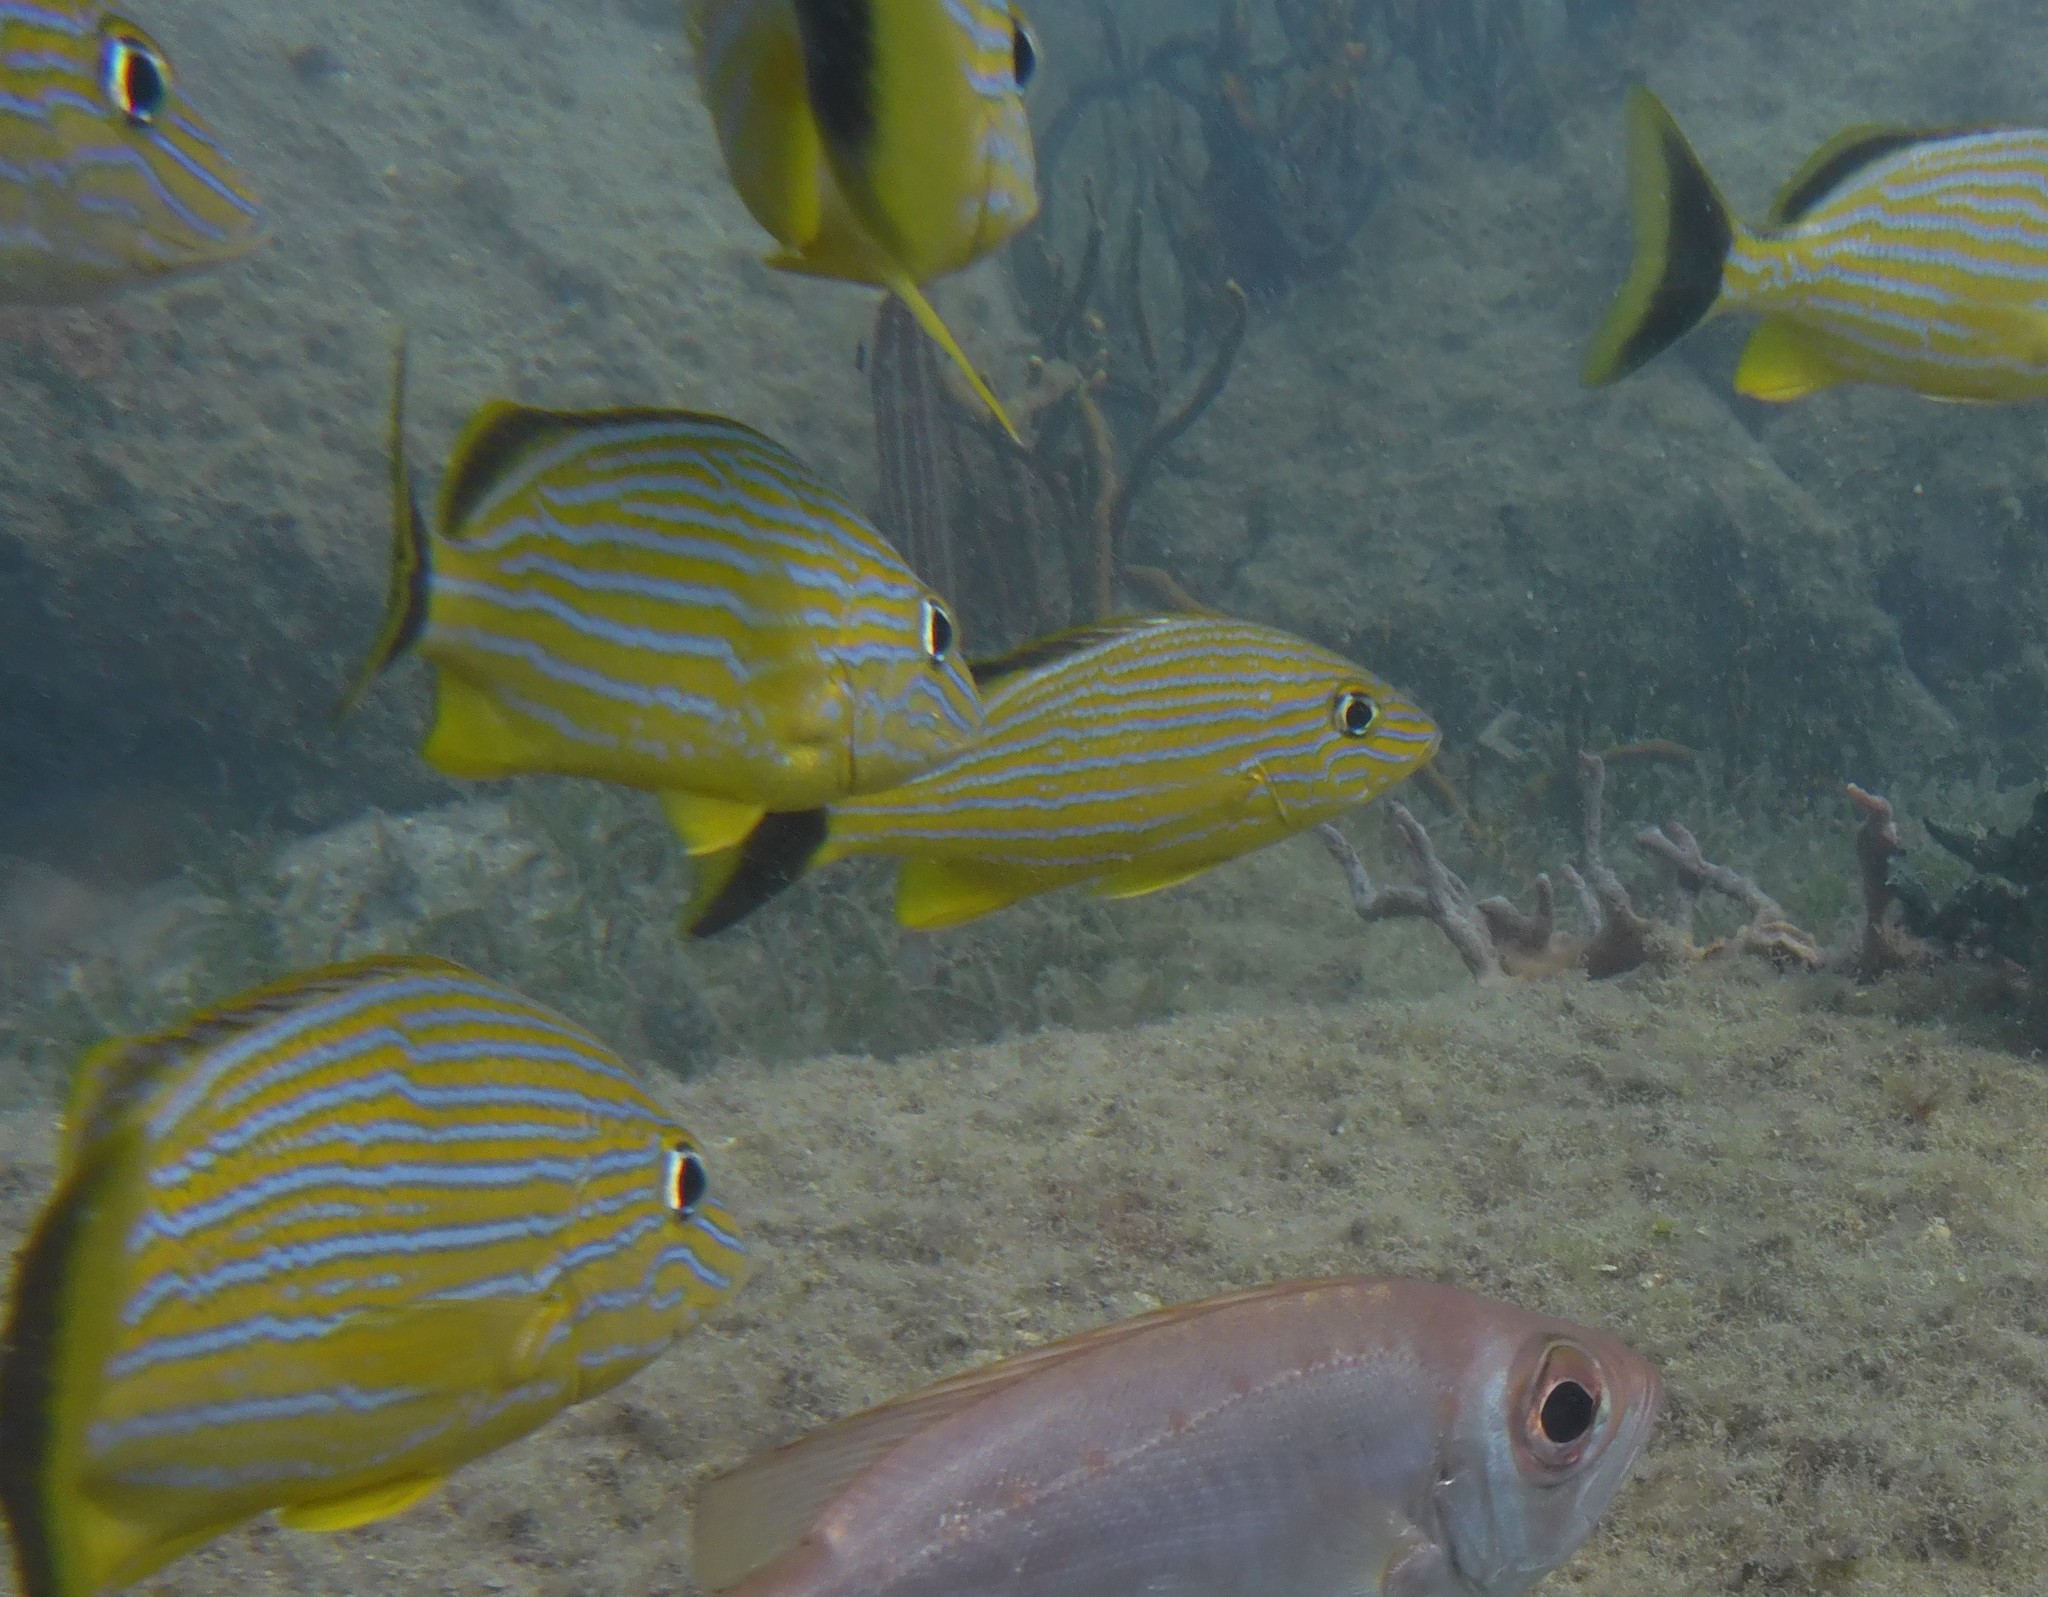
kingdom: Animalia
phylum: Chordata
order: Perciformes
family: Haemulidae
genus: Haemulon
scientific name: Haemulon sciurus
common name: Bluestriped grunt
